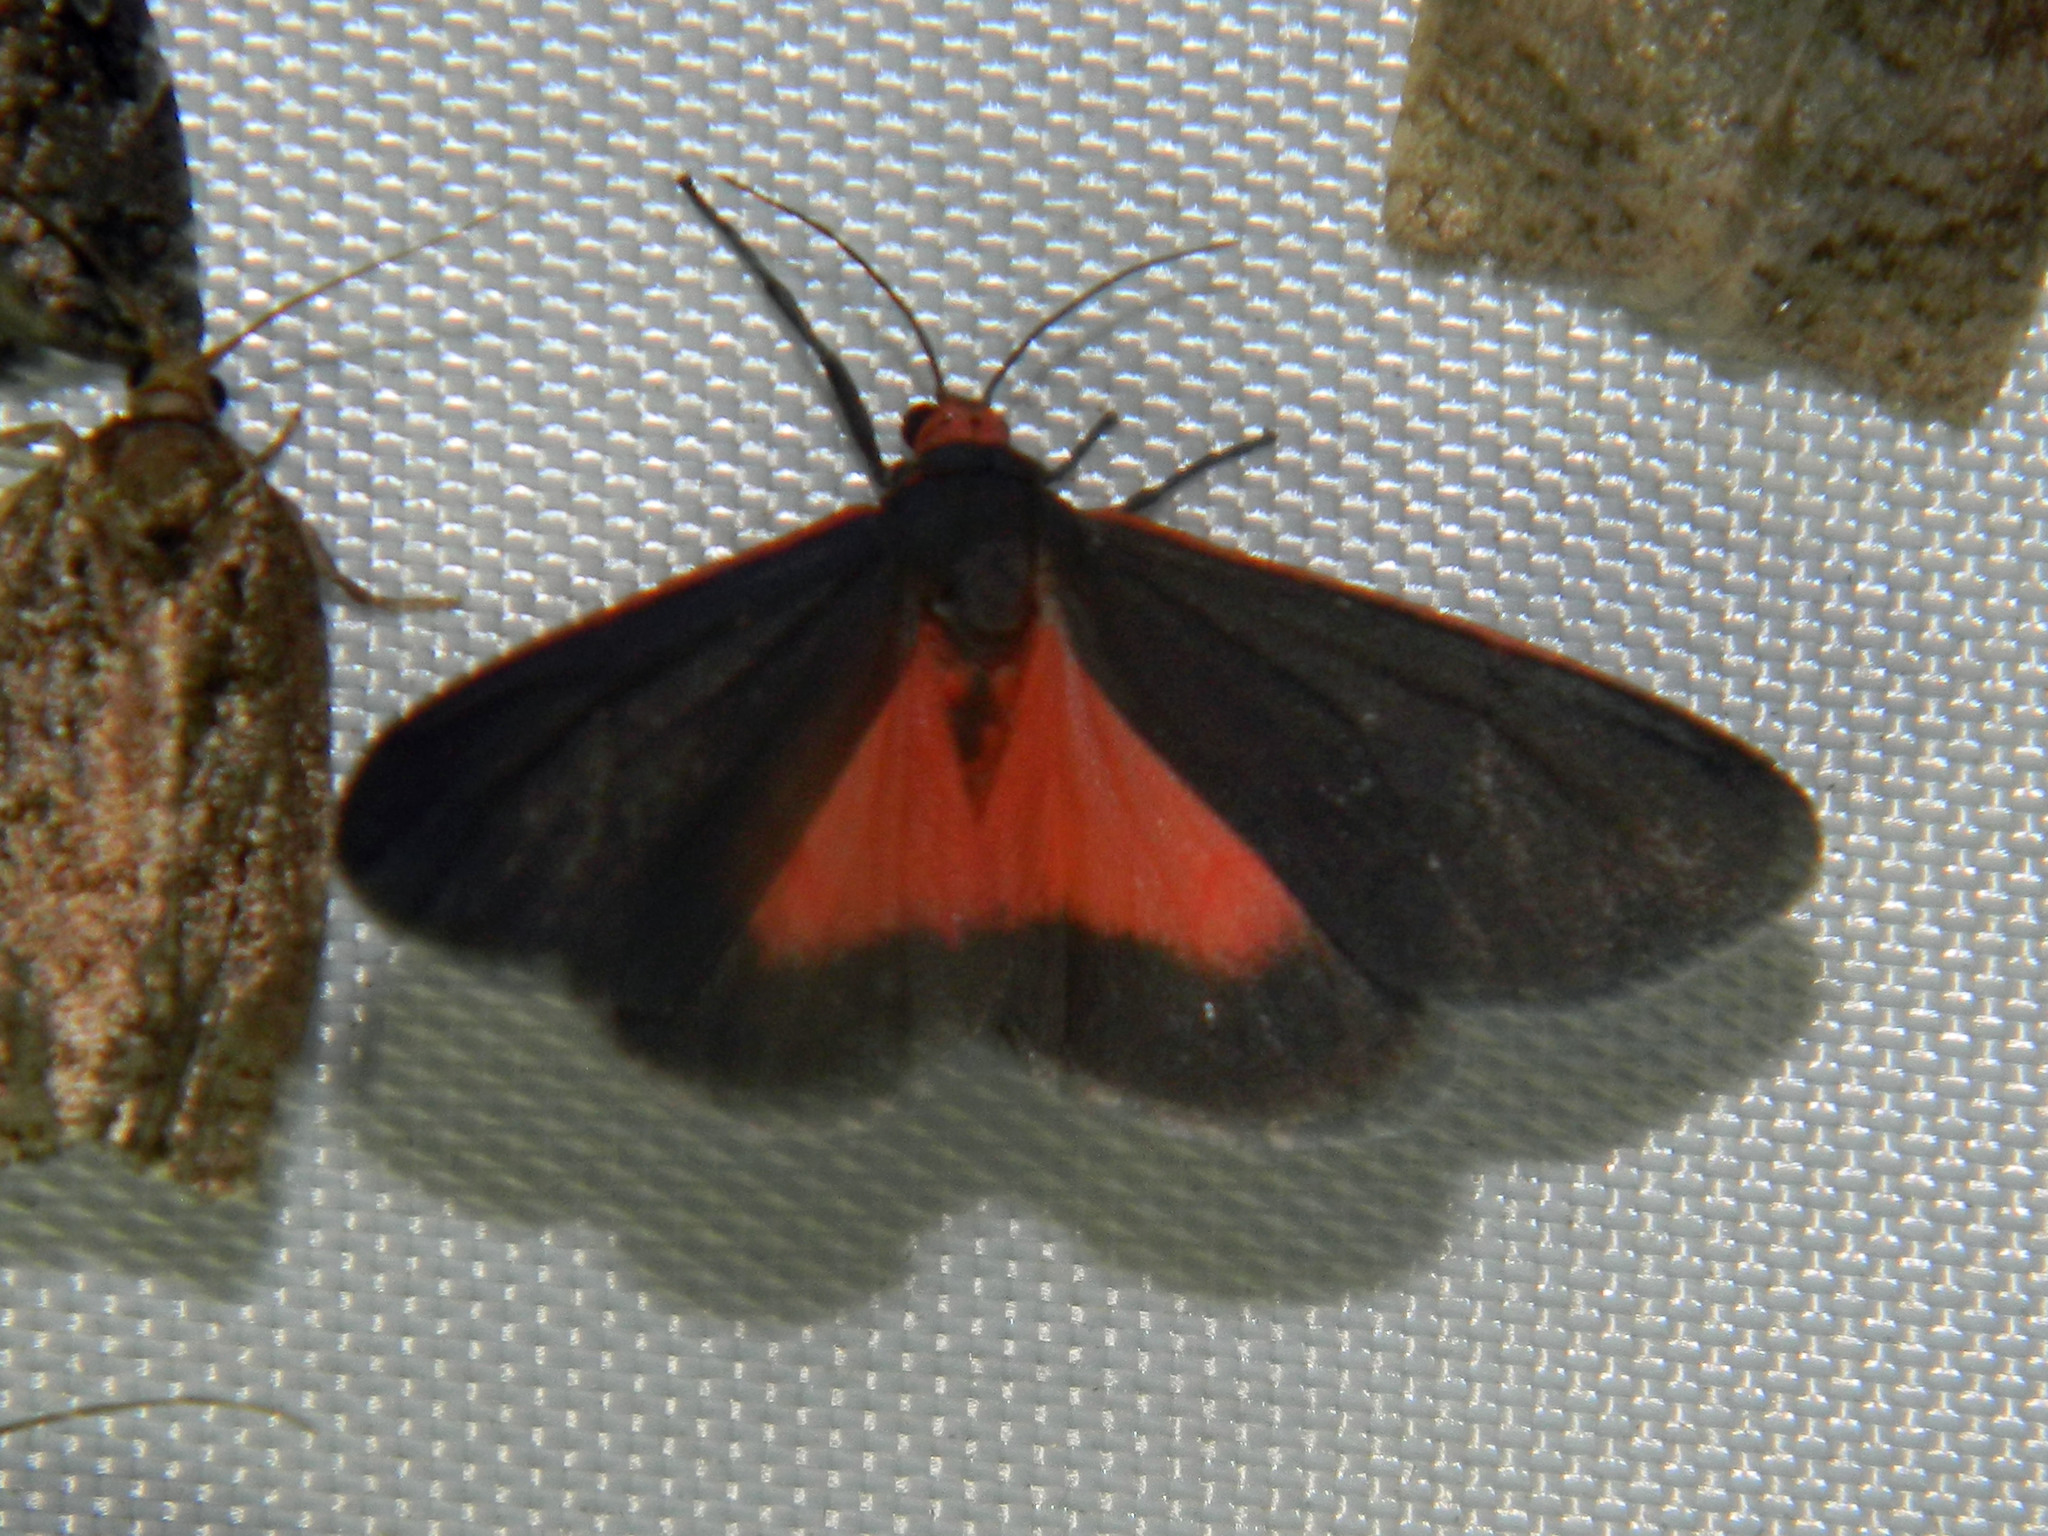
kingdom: Animalia
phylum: Arthropoda
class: Insecta
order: Lepidoptera
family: Erebidae
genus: Virbia
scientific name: Virbia laeta
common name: Joyful holomelina moth
